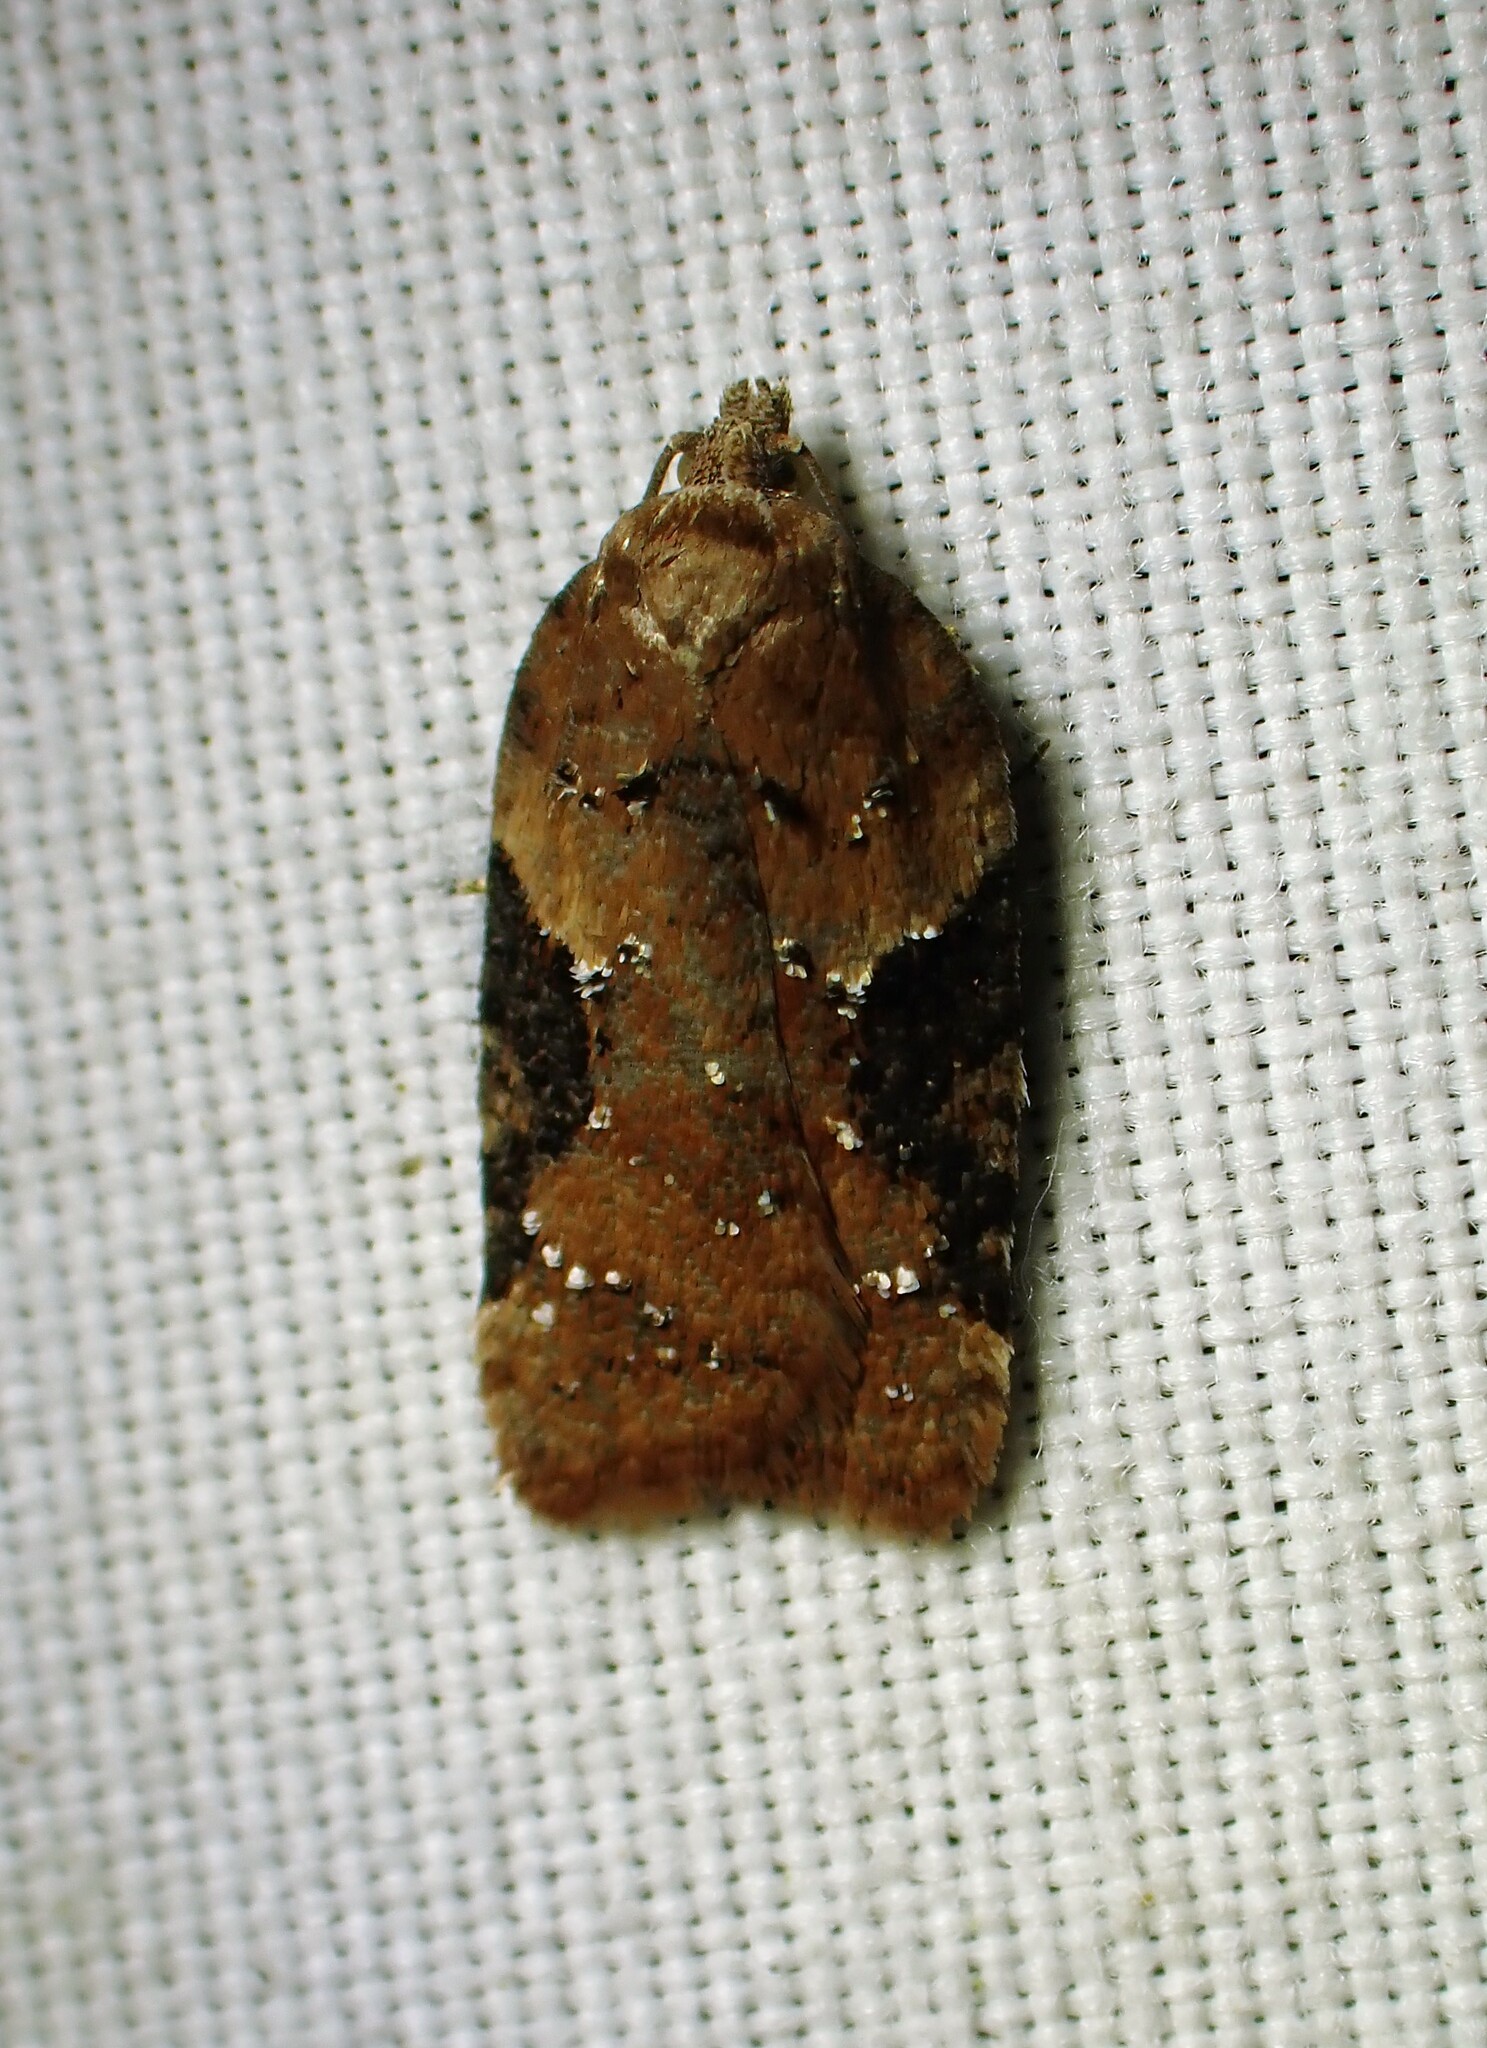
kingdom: Animalia
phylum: Arthropoda
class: Insecta
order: Lepidoptera
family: Tortricidae
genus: Acleris
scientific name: Acleris braunana
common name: Alder leafroller
